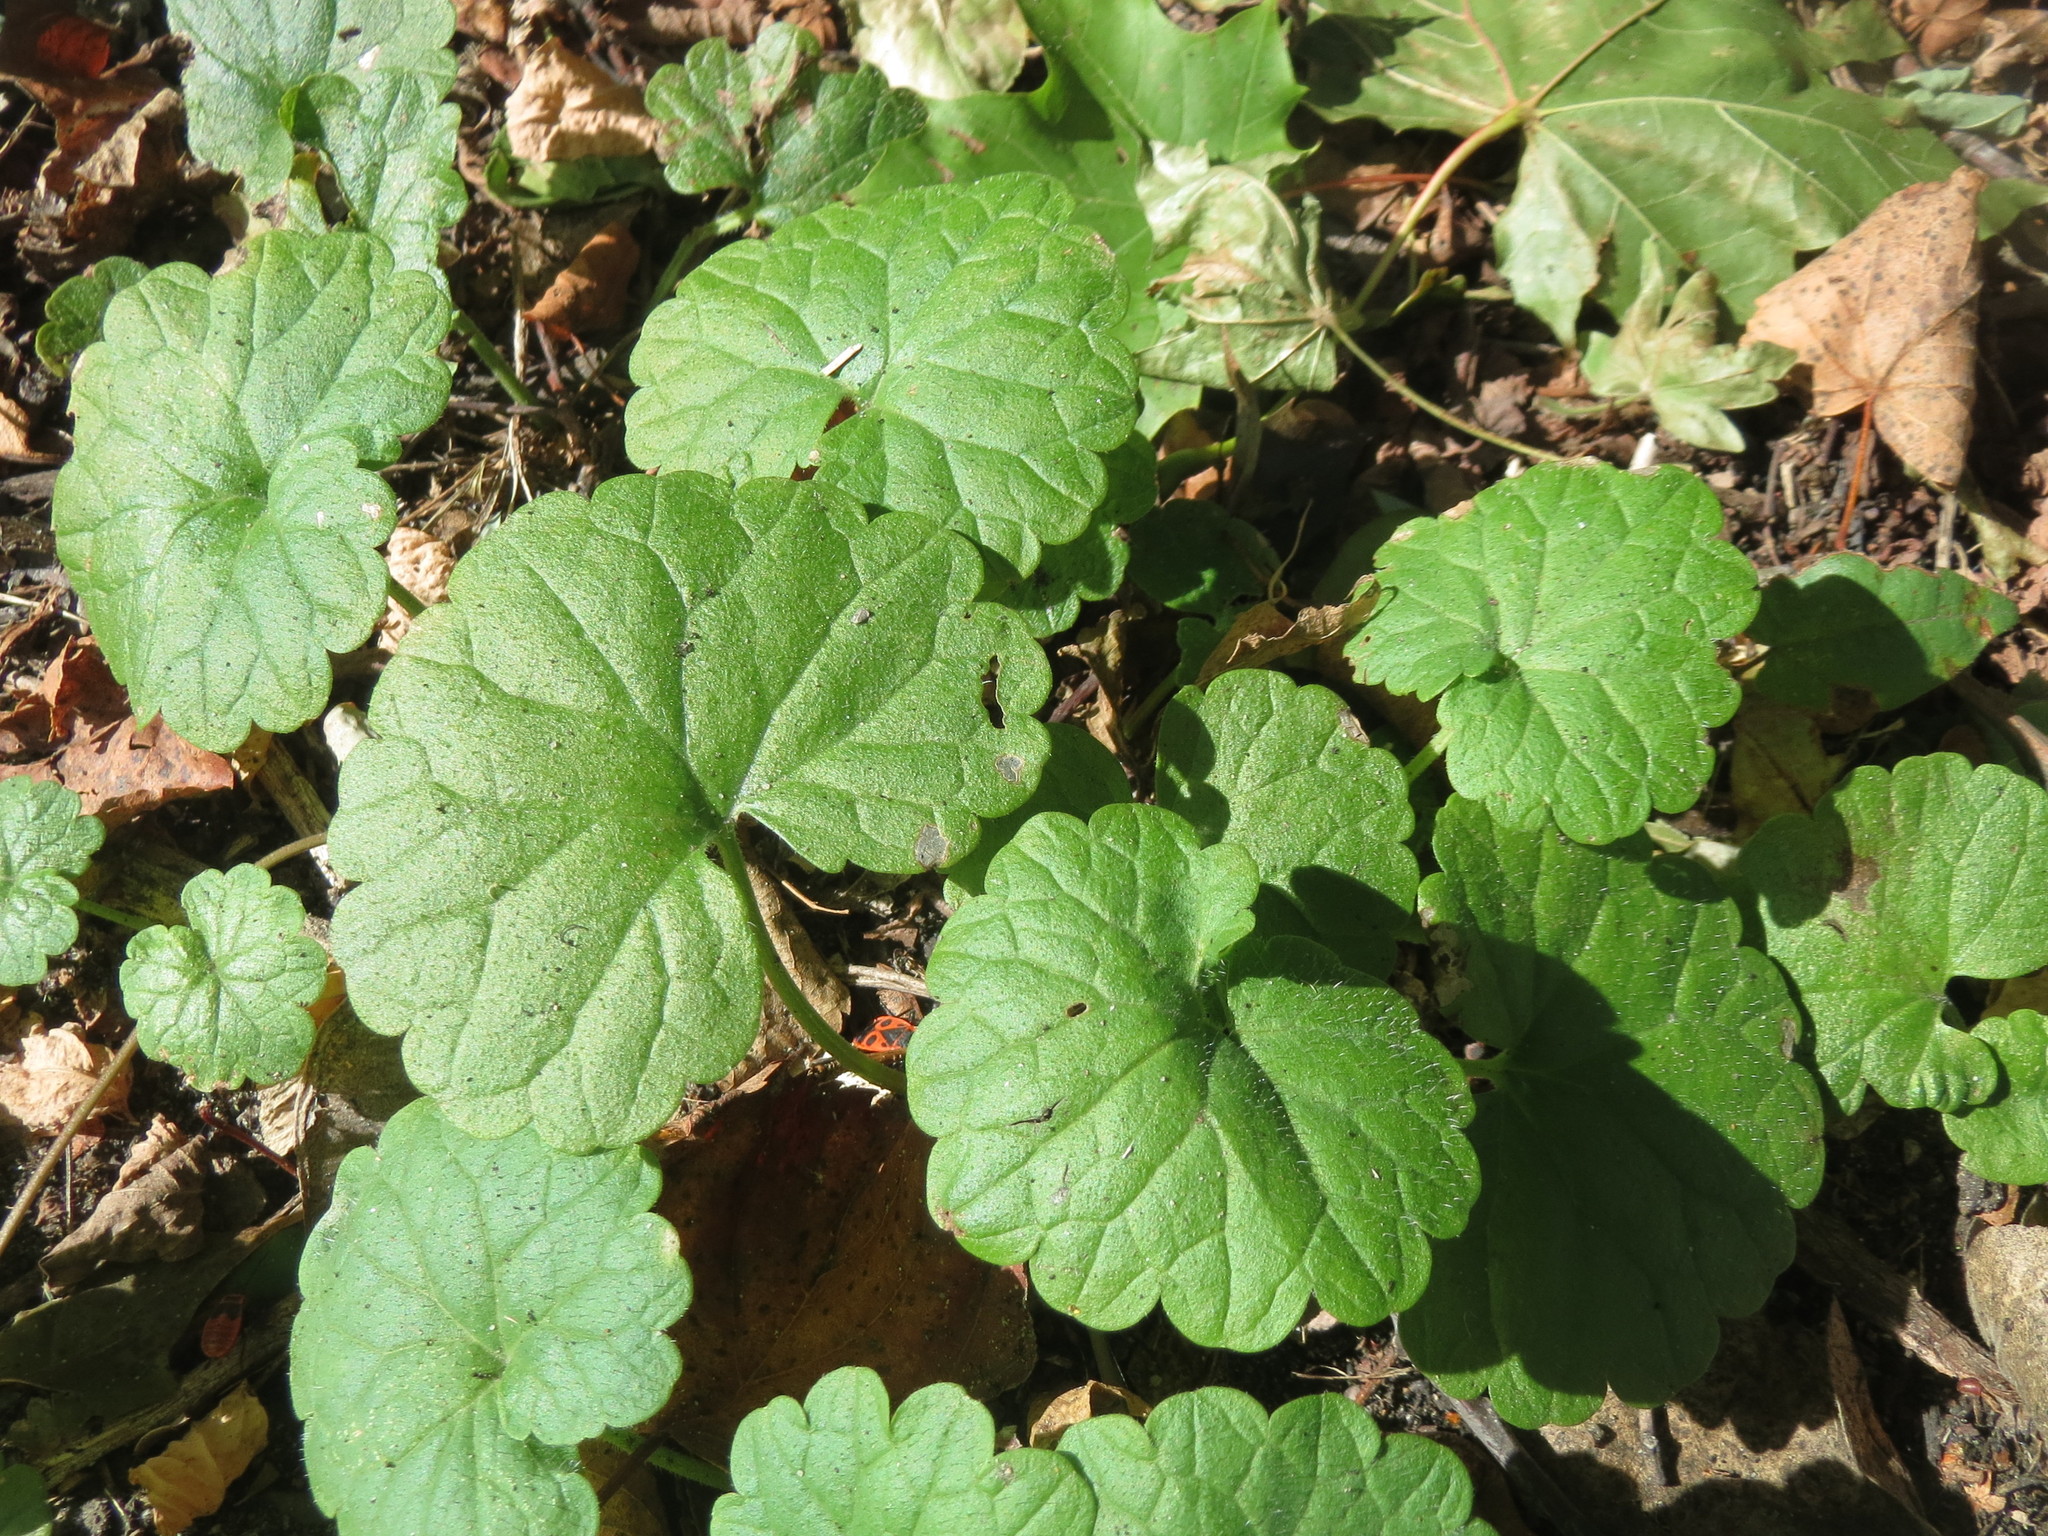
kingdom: Plantae
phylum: Tracheophyta
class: Magnoliopsida
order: Lamiales
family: Lamiaceae
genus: Glechoma
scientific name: Glechoma hederacea
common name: Ground ivy
